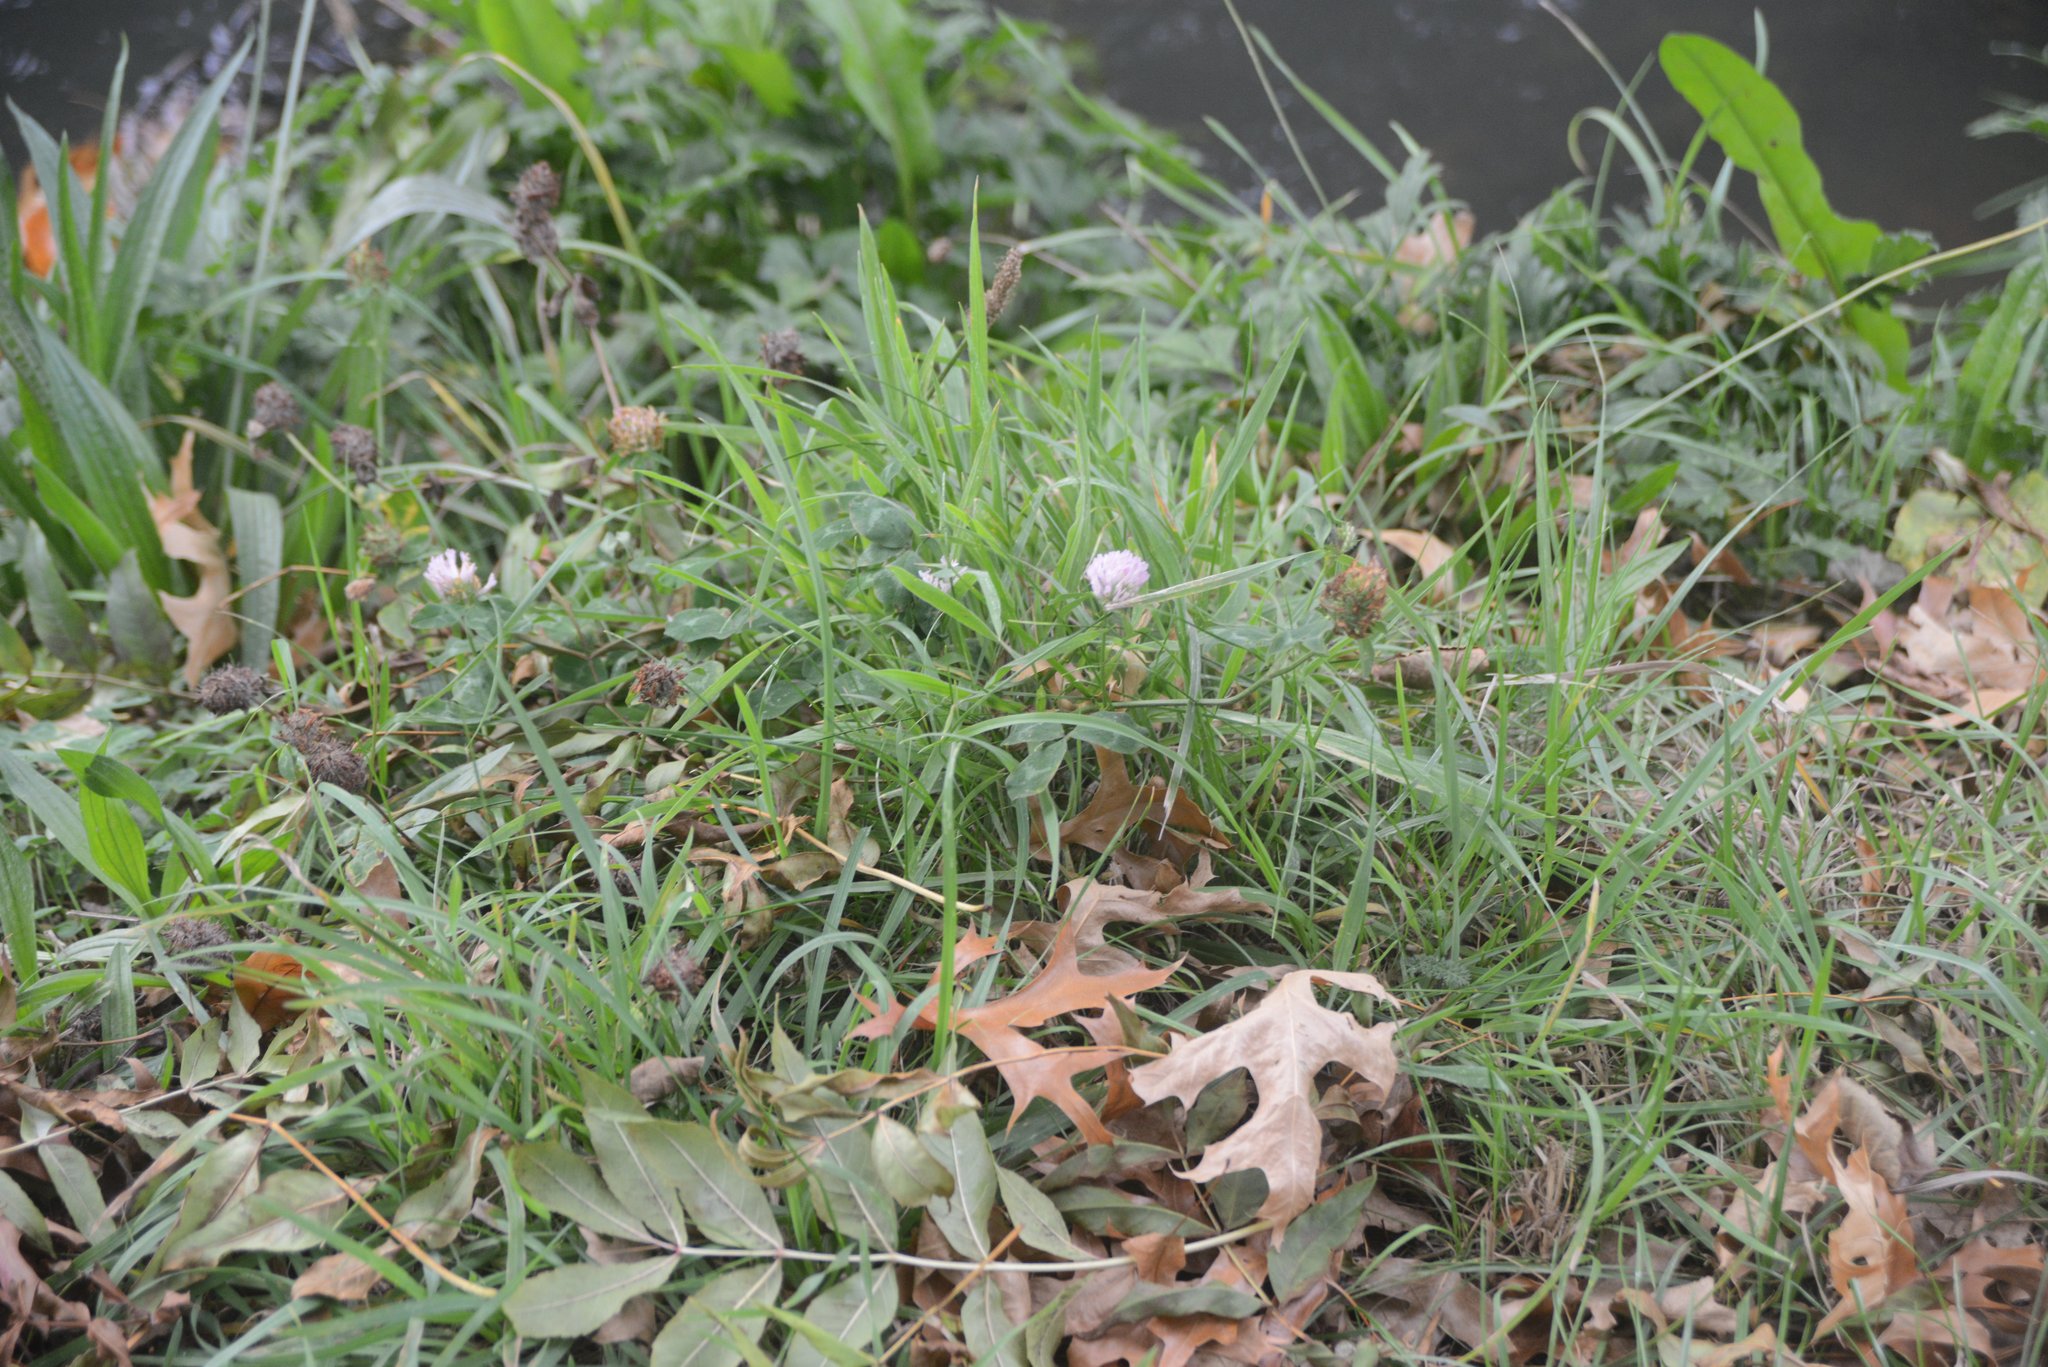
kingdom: Plantae
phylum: Tracheophyta
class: Magnoliopsida
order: Fabales
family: Fabaceae
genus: Trifolium
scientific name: Trifolium pratense
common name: Red clover
